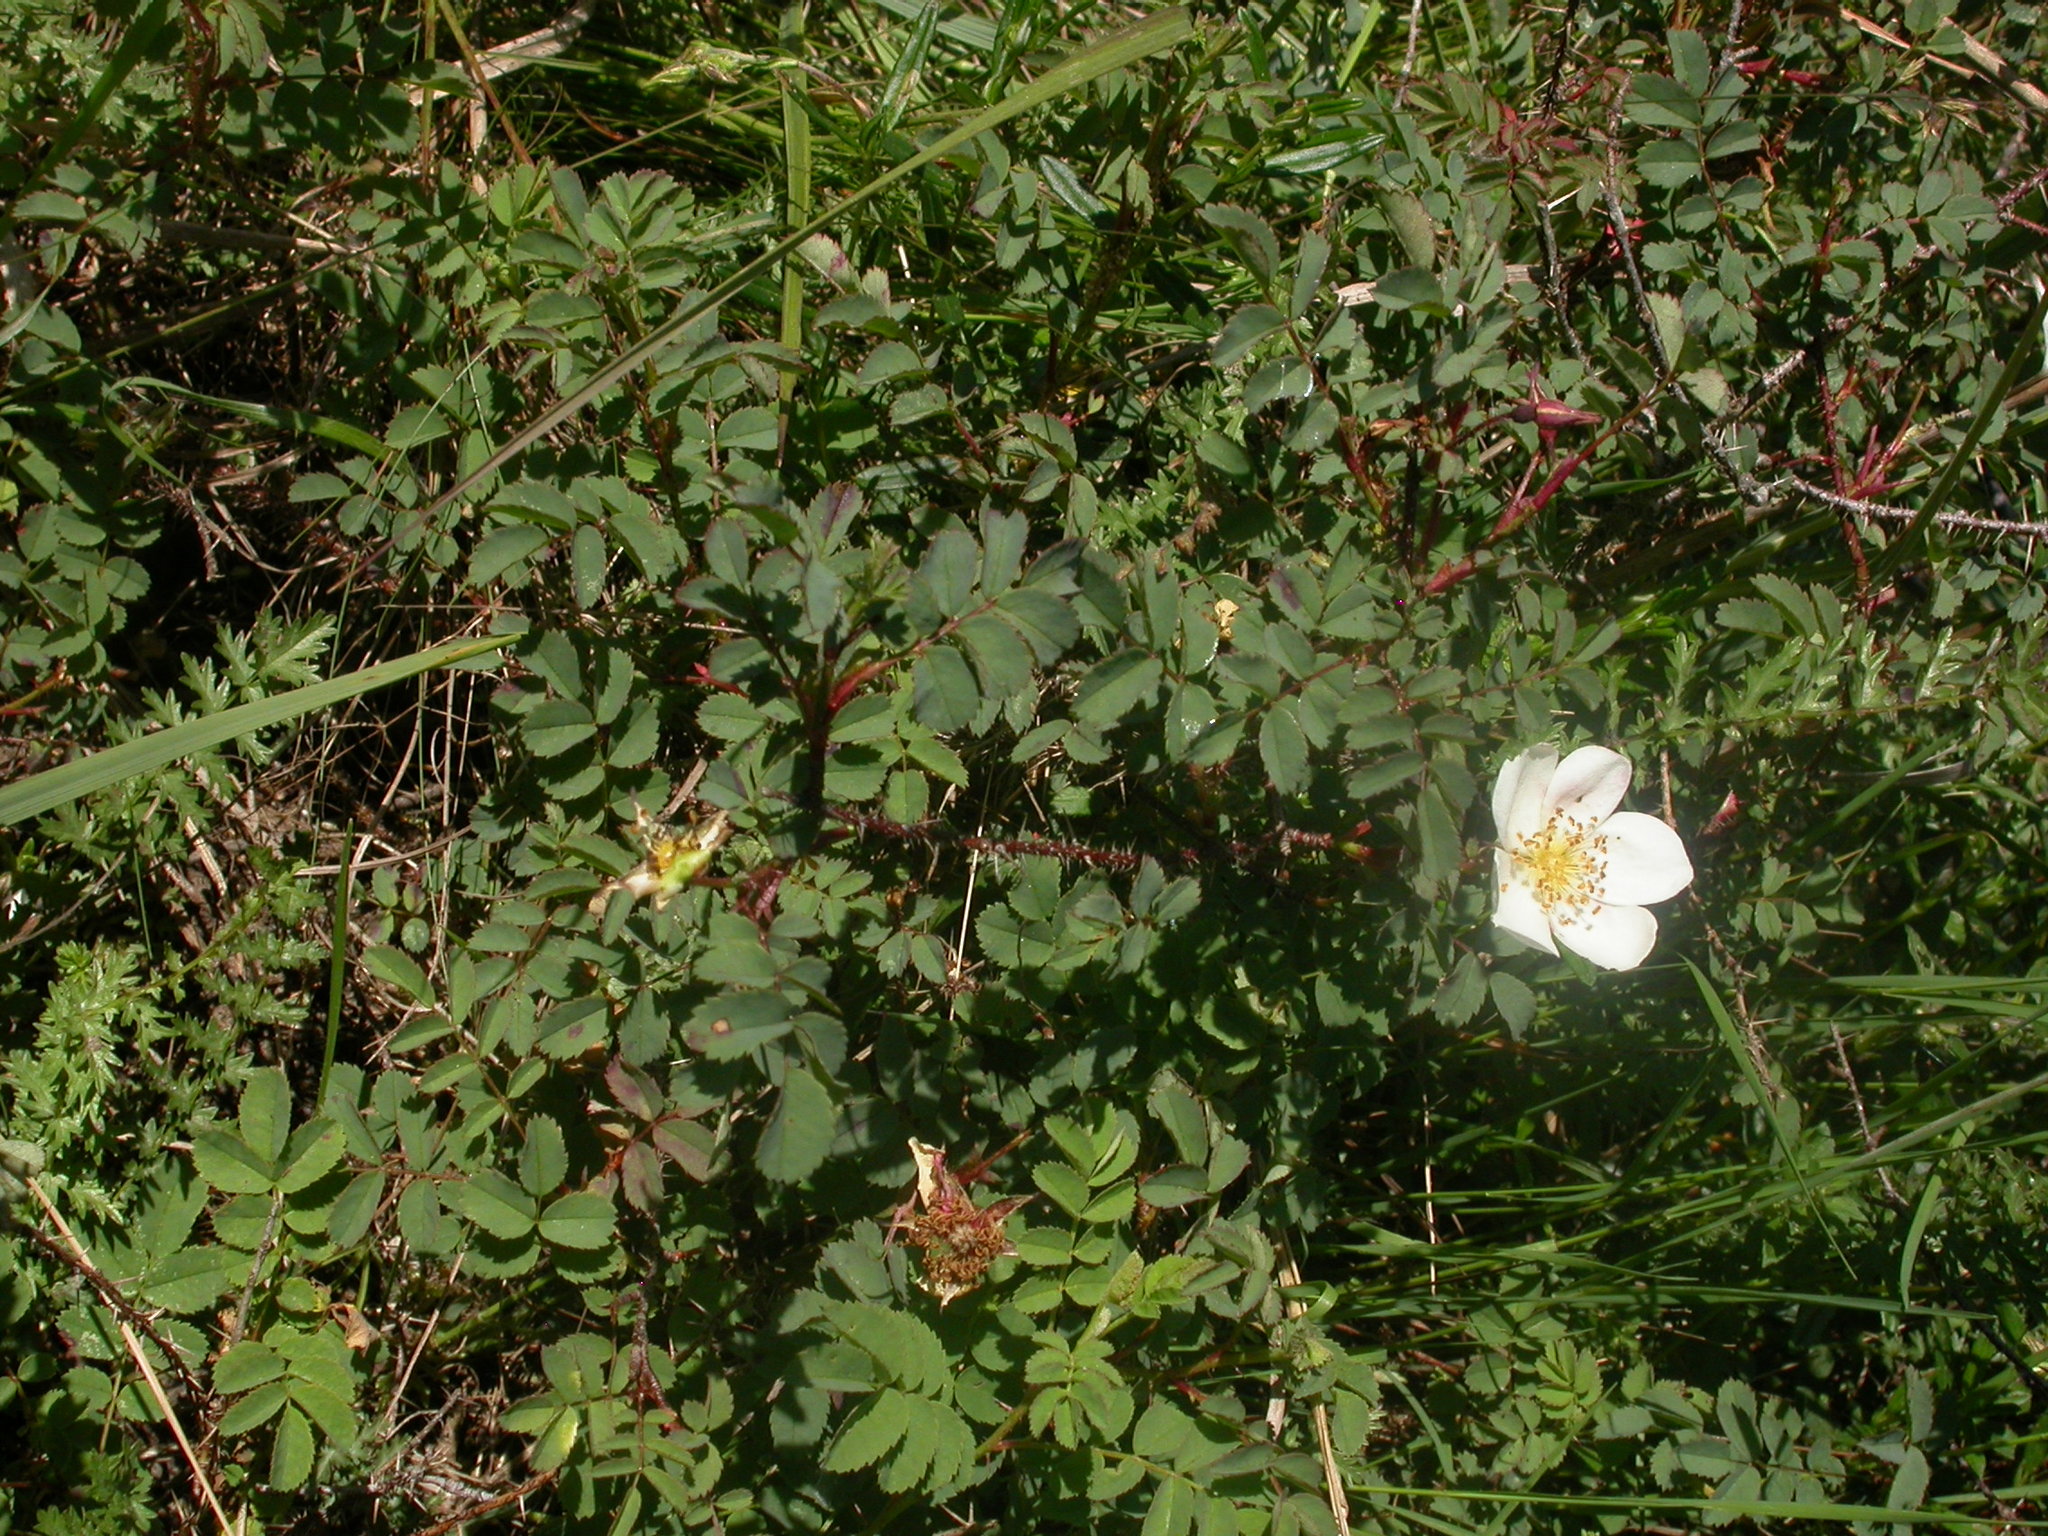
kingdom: Plantae
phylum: Tracheophyta
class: Magnoliopsida
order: Rosales
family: Rosaceae
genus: Rosa
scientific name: Rosa spinosissima
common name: Burnet rose
